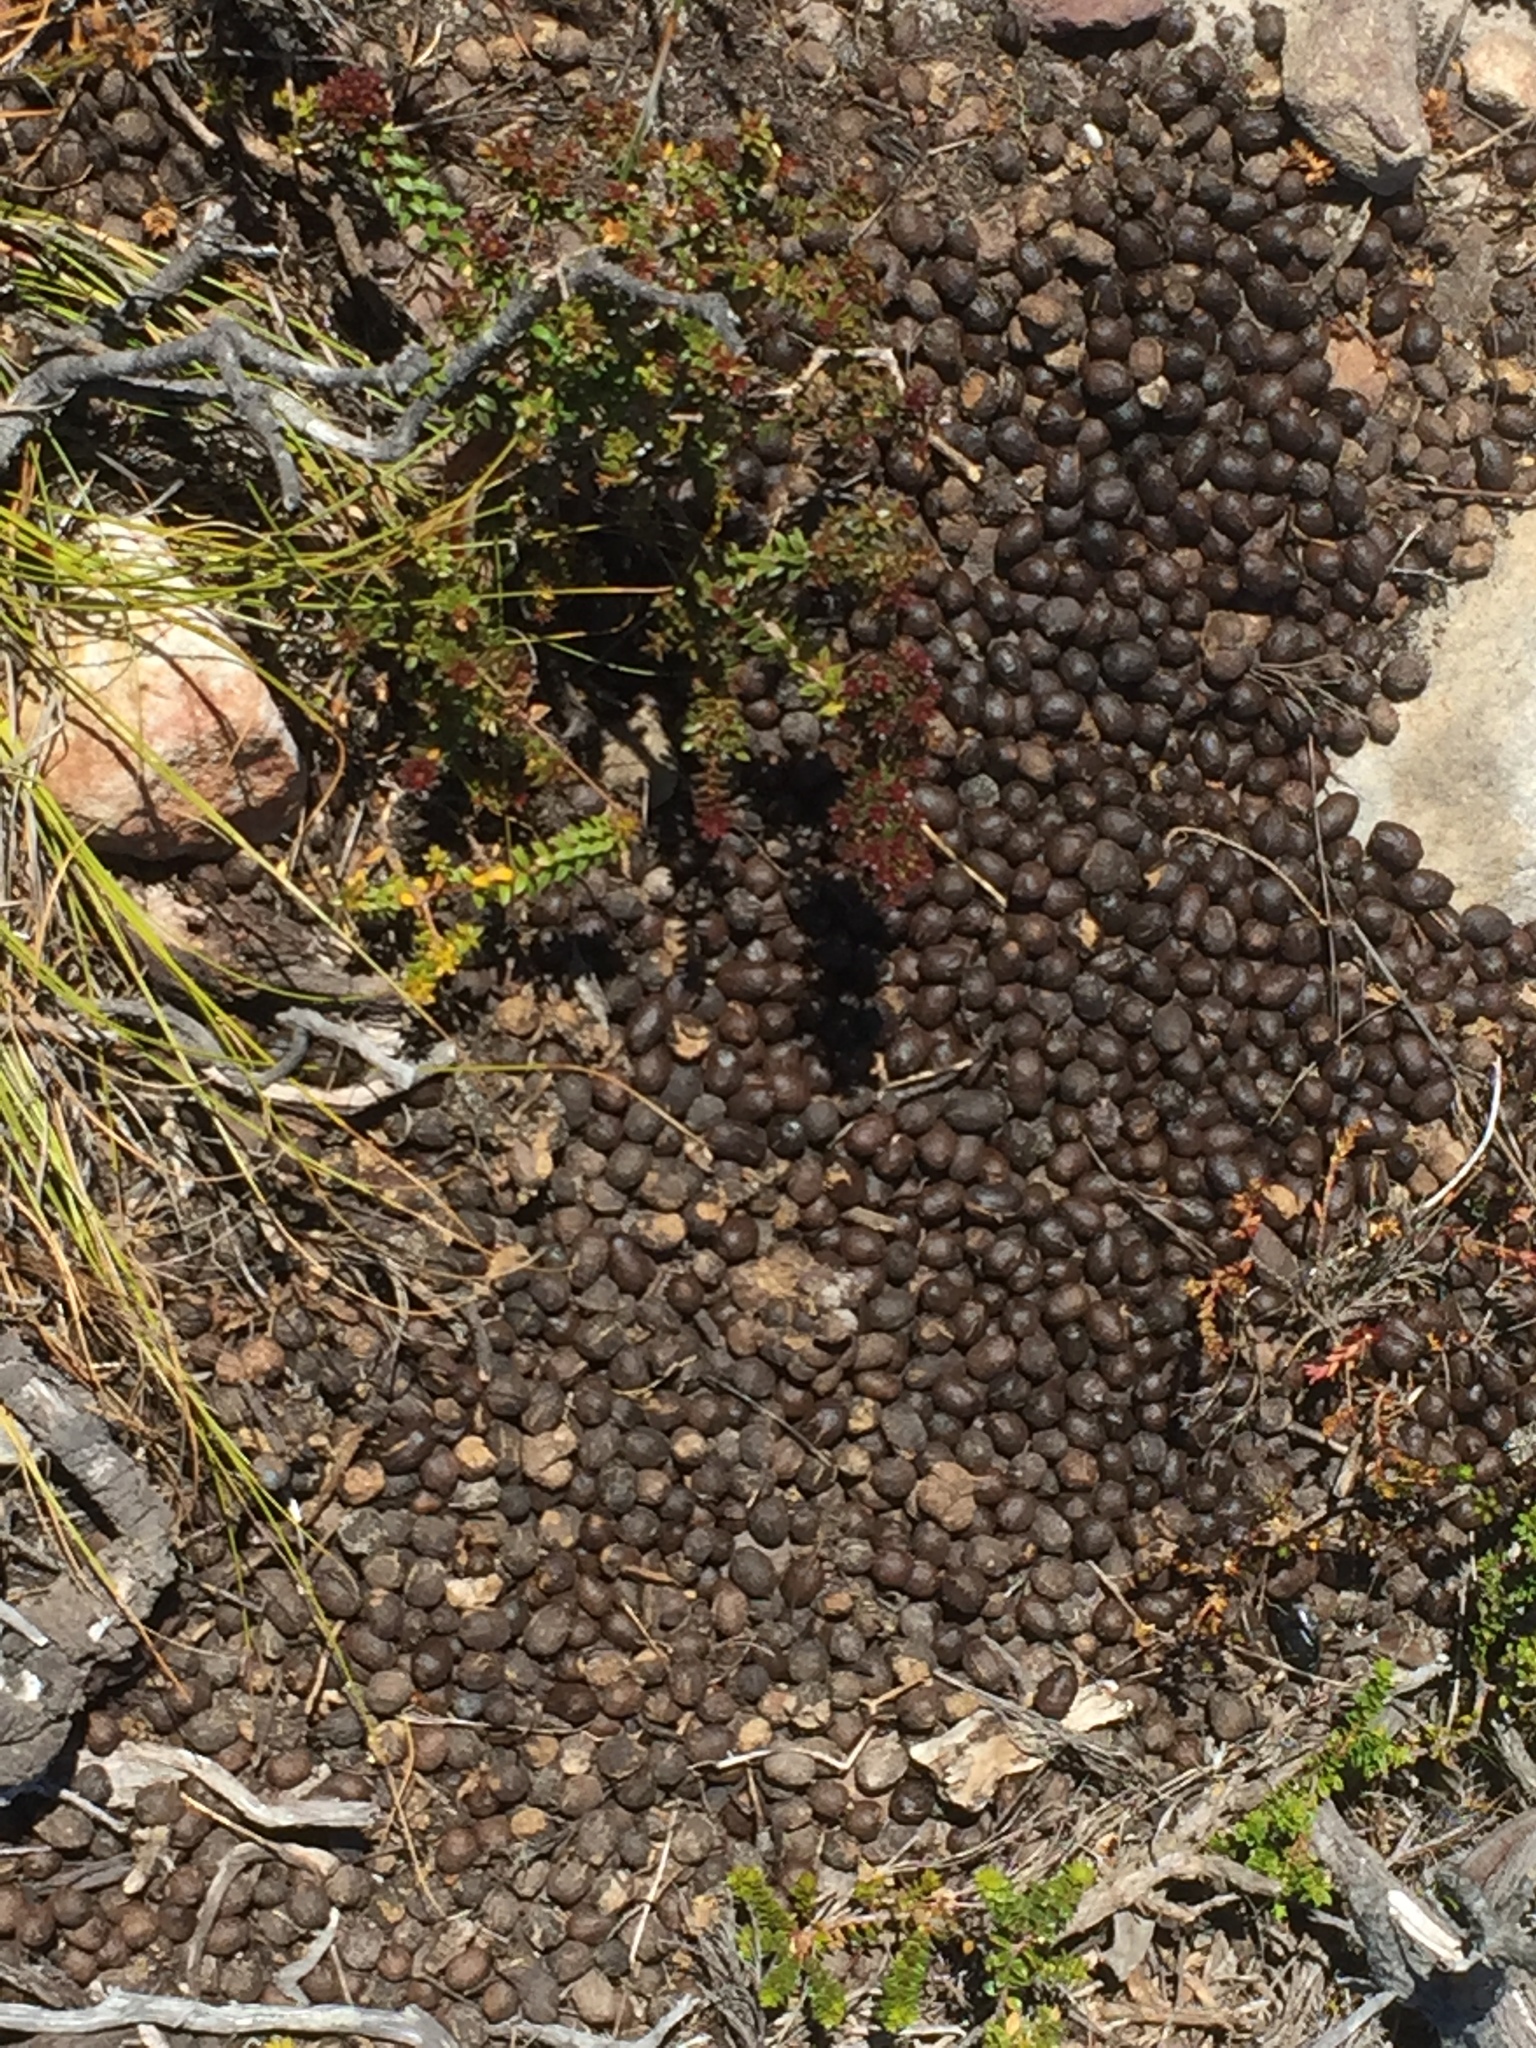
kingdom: Animalia
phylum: Chordata
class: Mammalia
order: Artiodactyla
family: Bovidae
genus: Oreotragus
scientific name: Oreotragus oreotragus
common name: Klipspringer
